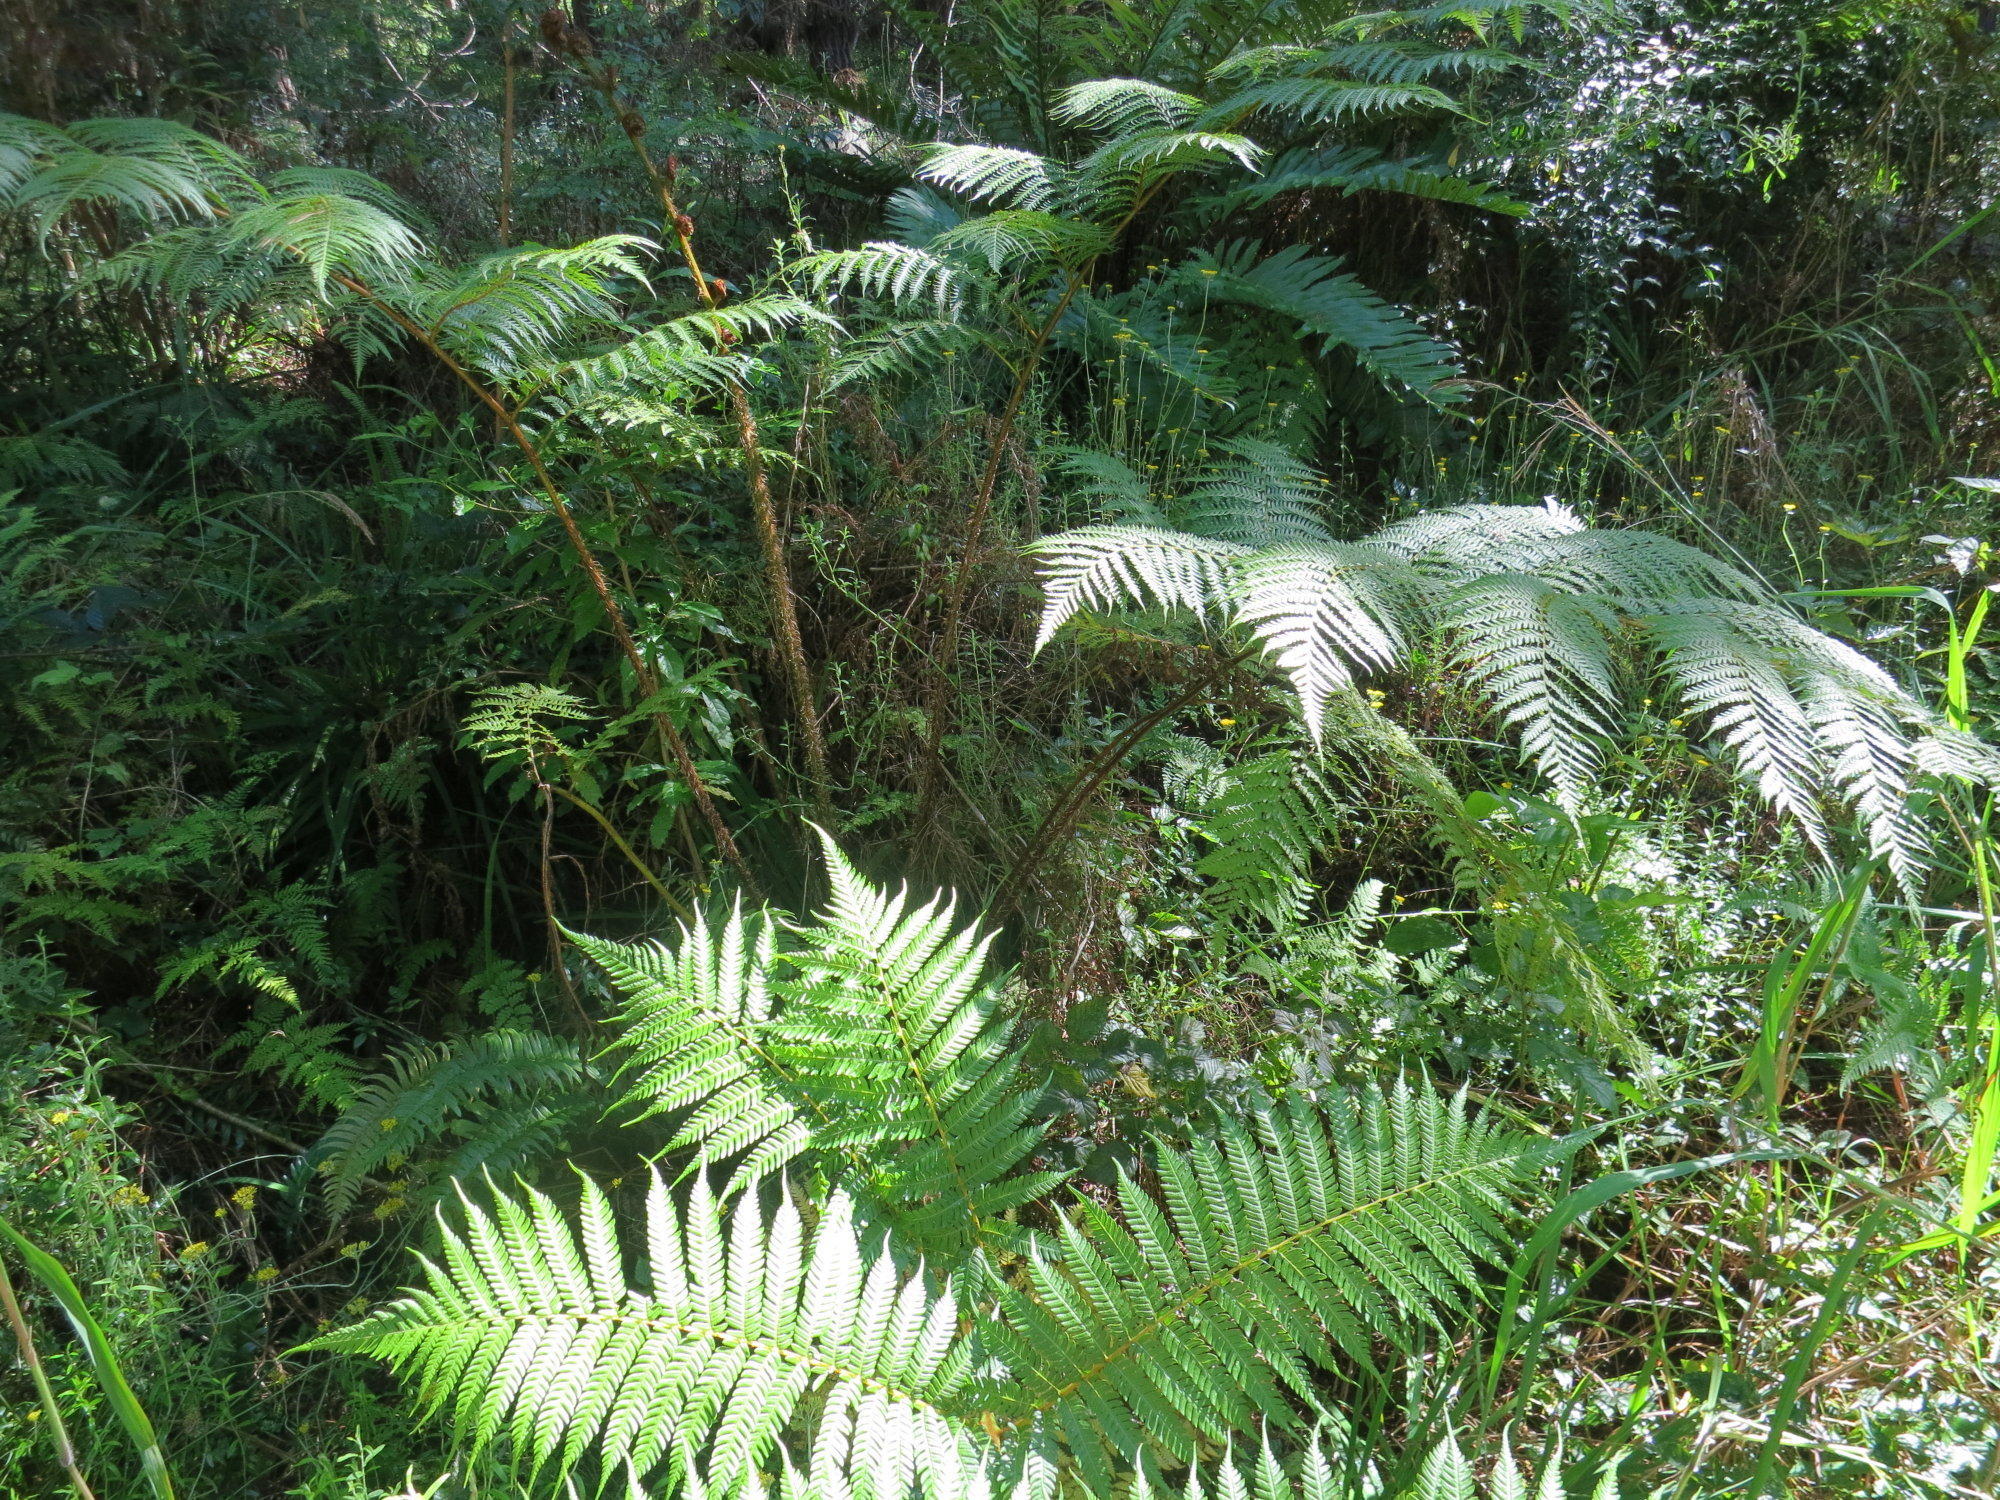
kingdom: Plantae
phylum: Tracheophyta
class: Polypodiopsida
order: Polypodiales
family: Blechnaceae
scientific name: Blechnaceae
